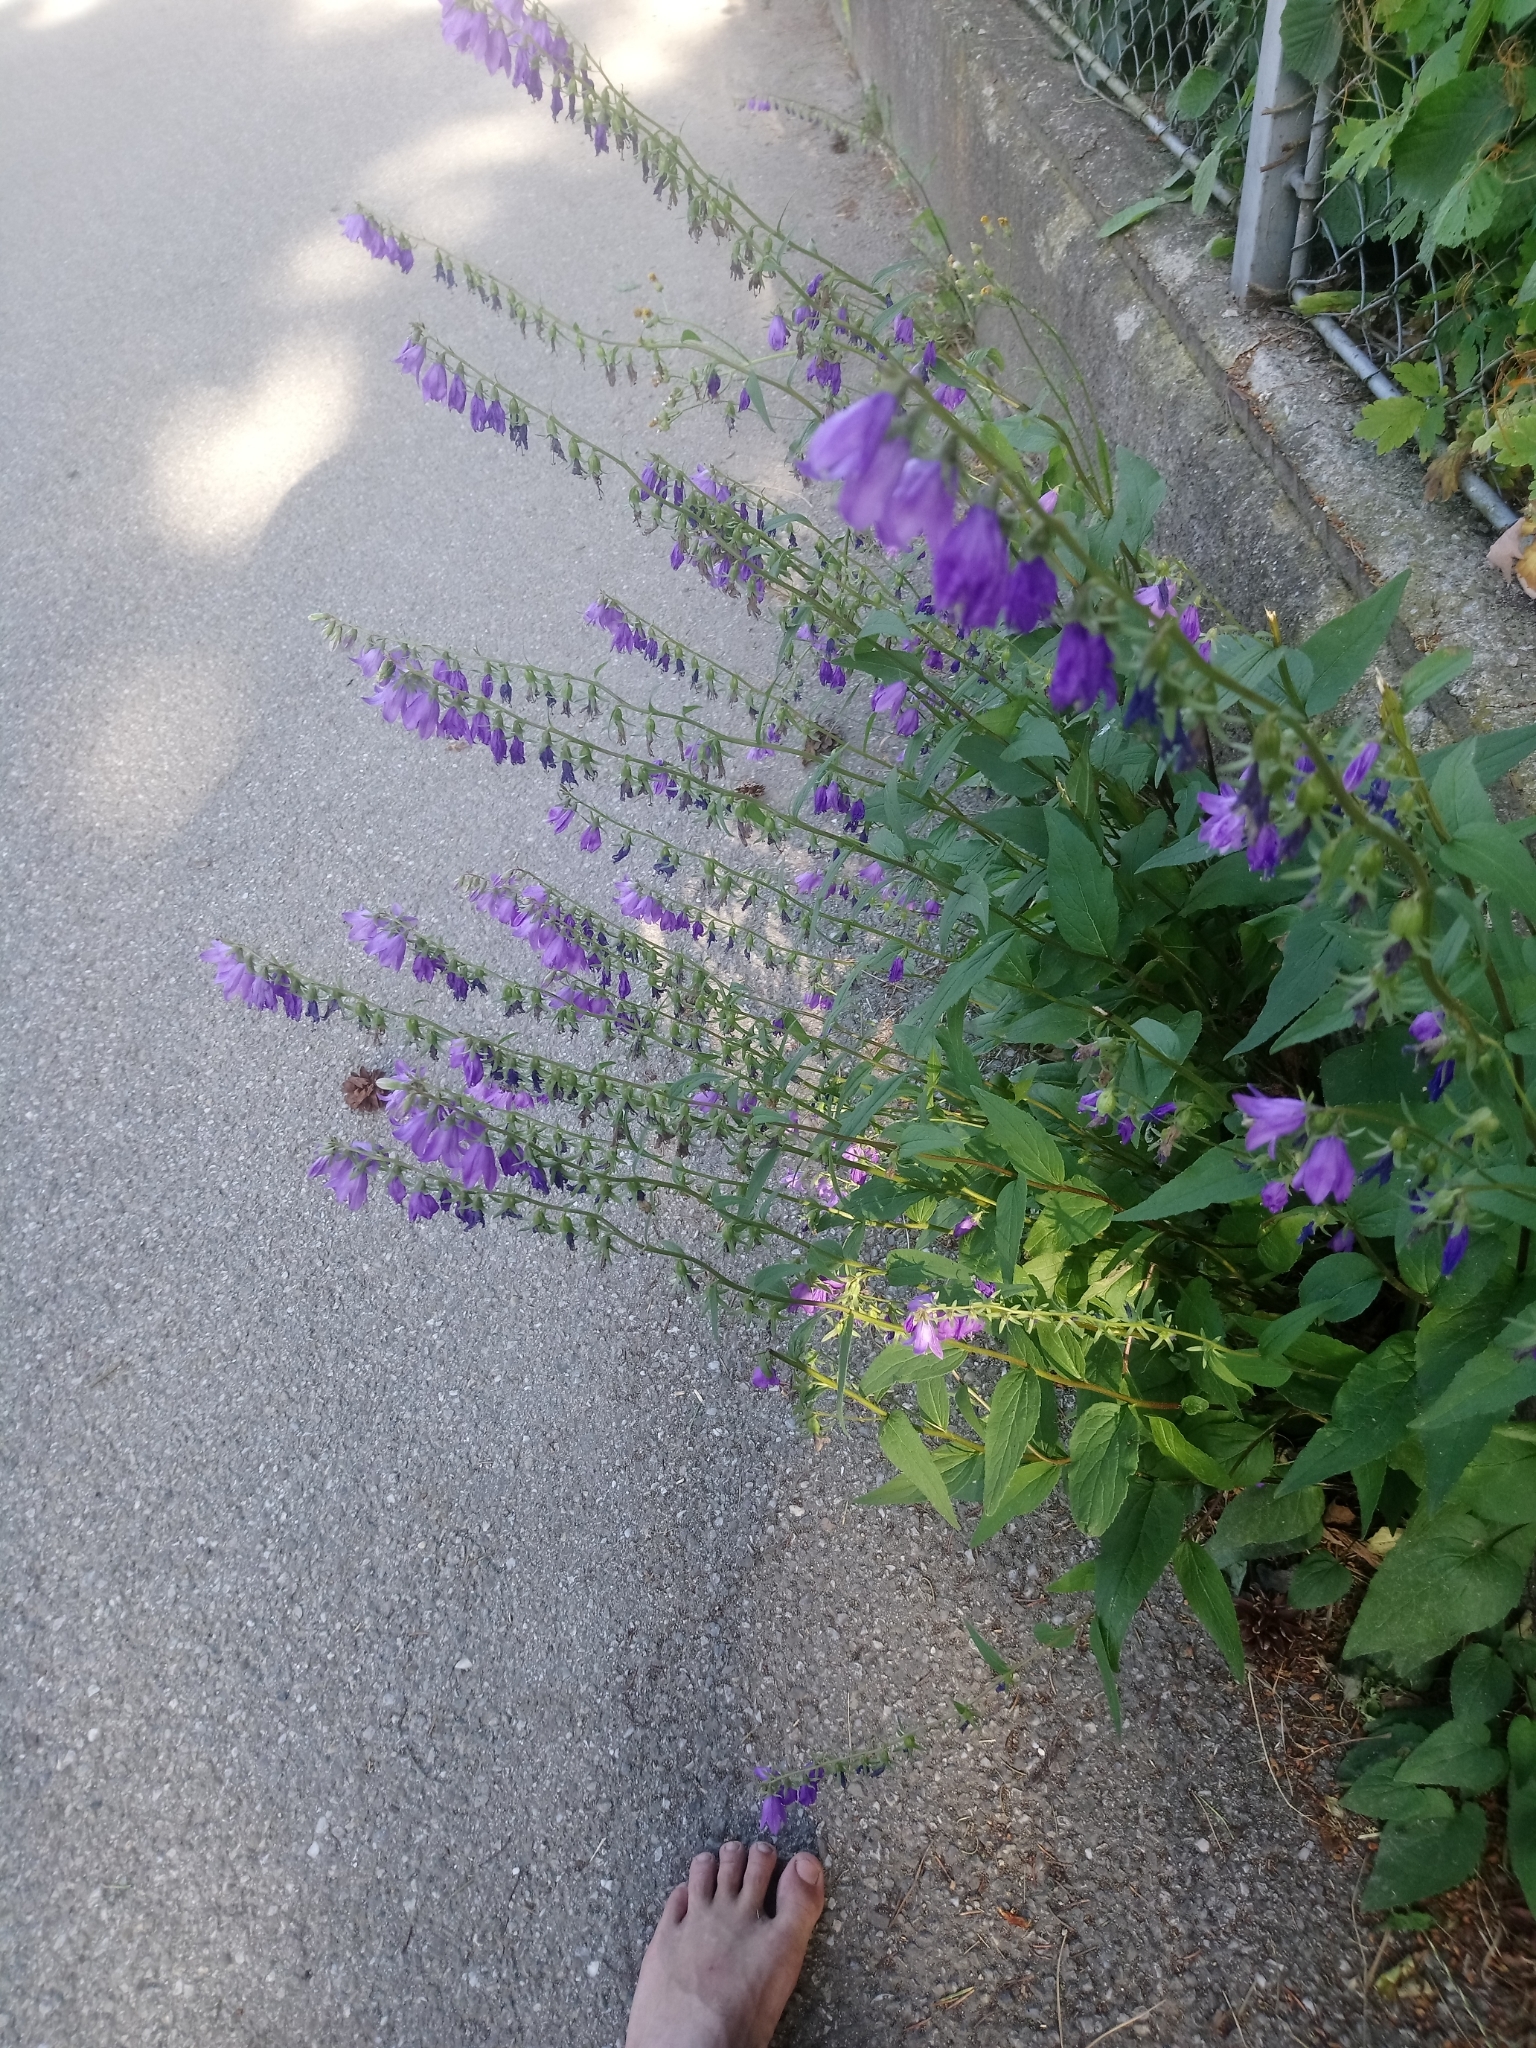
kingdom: Plantae
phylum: Tracheophyta
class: Magnoliopsida
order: Asterales
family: Campanulaceae
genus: Campanula
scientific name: Campanula rapunculoides
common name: Creeping bellflower
